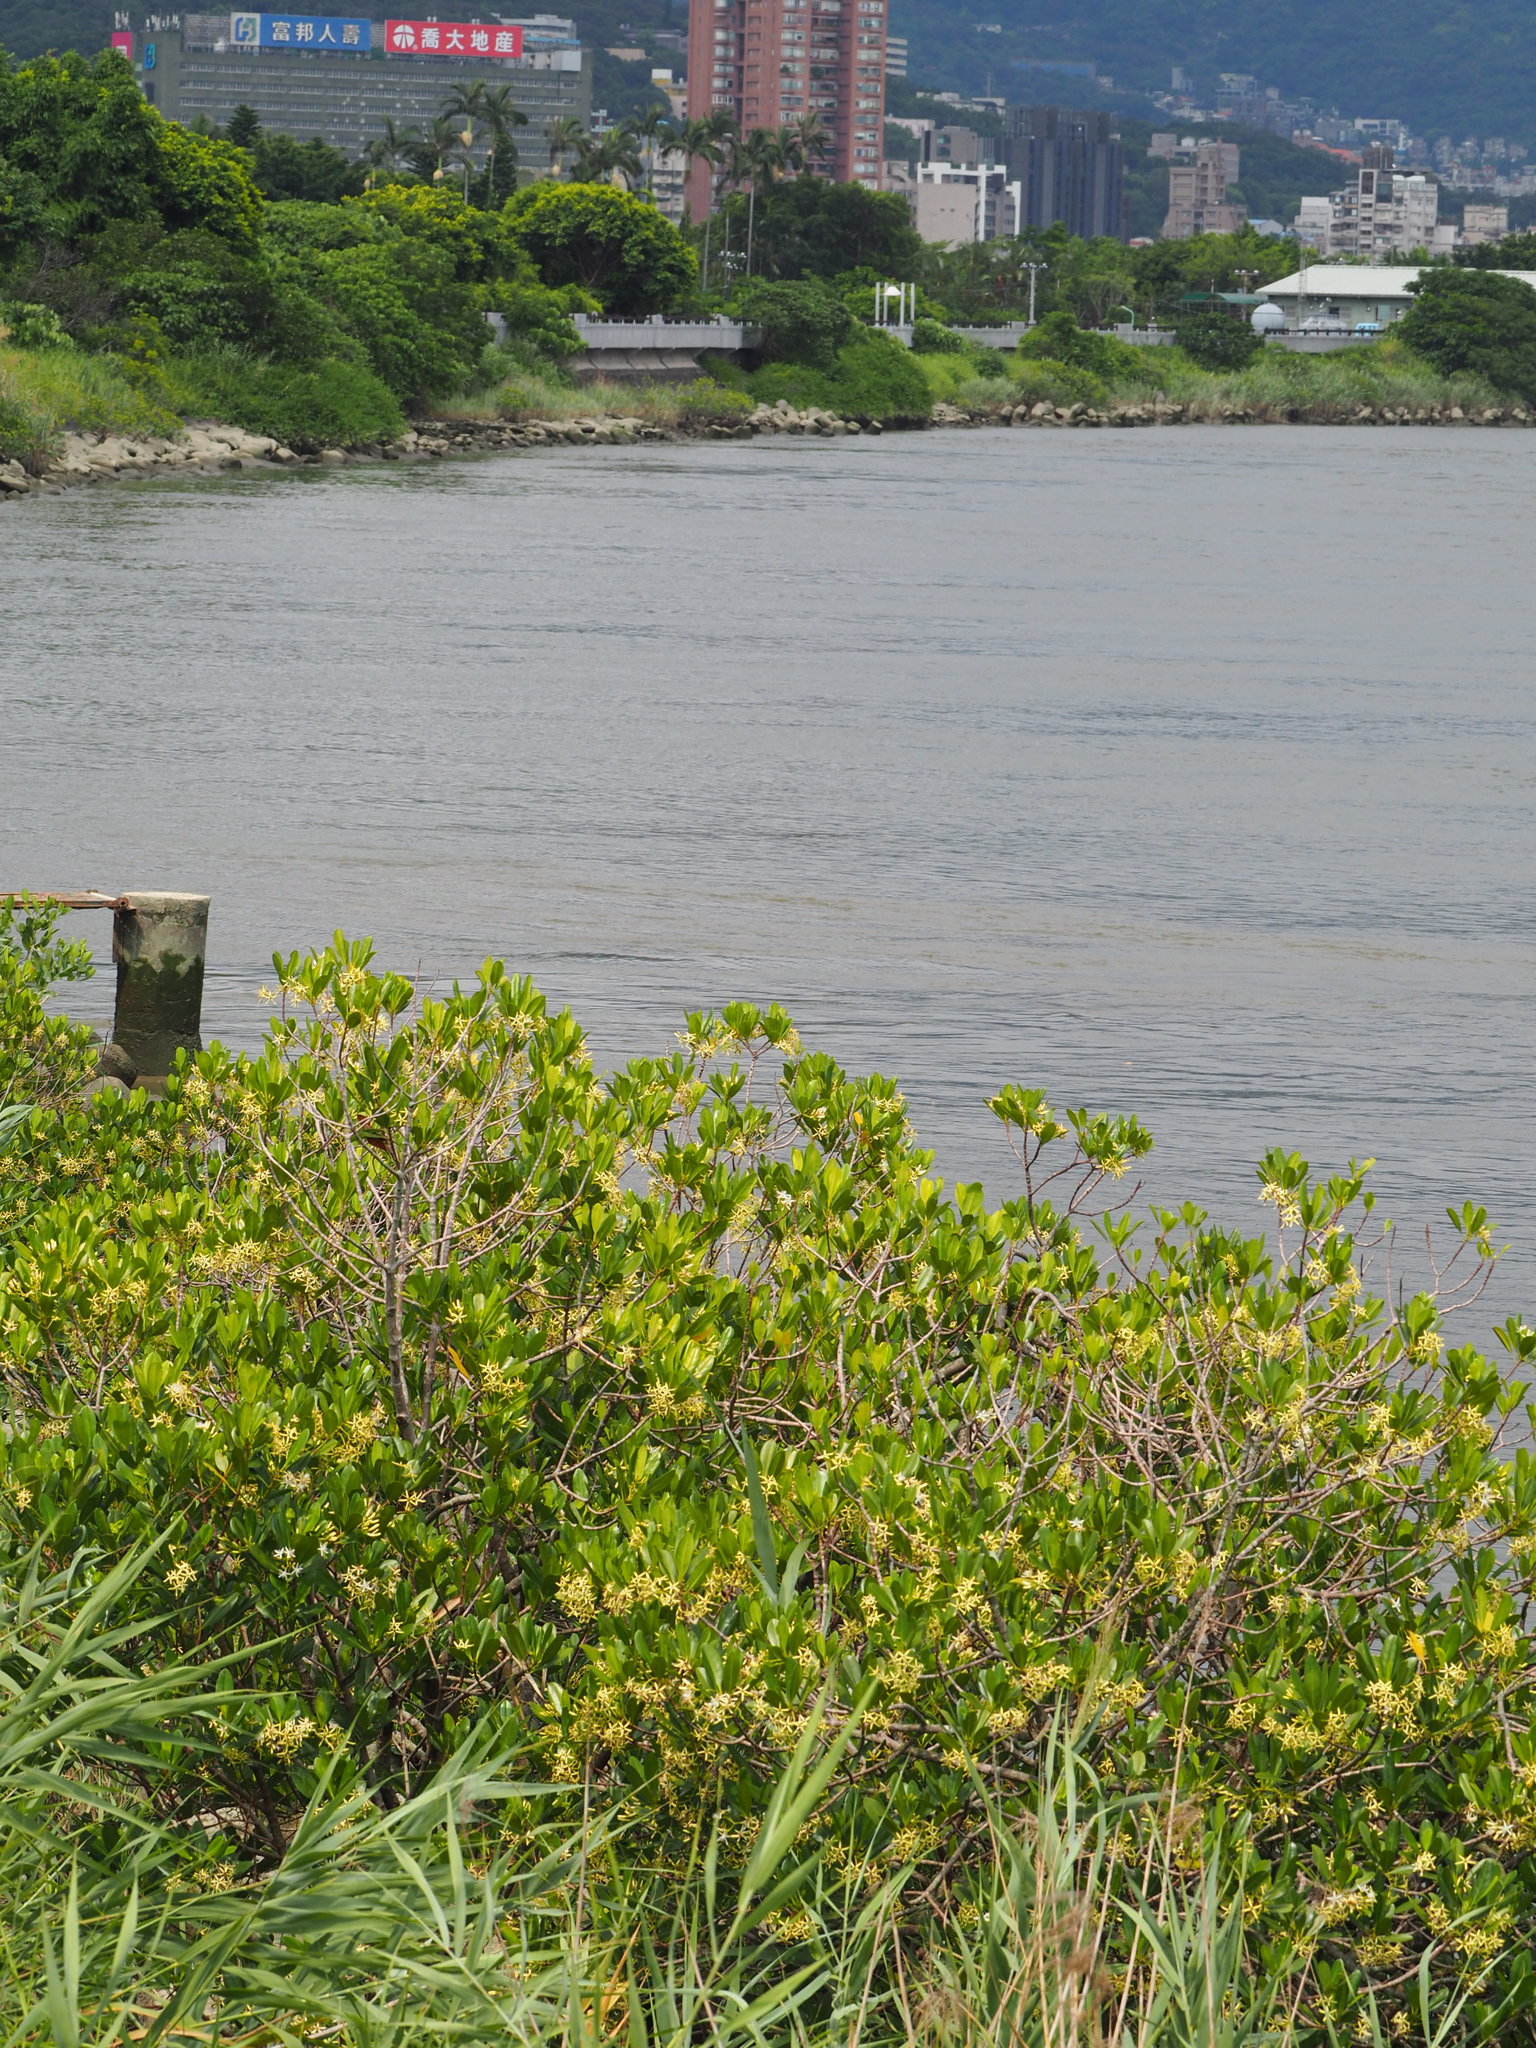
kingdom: Plantae
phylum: Tracheophyta
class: Magnoliopsida
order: Malpighiales
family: Rhizophoraceae
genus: Kandelia
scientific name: Kandelia obovata
